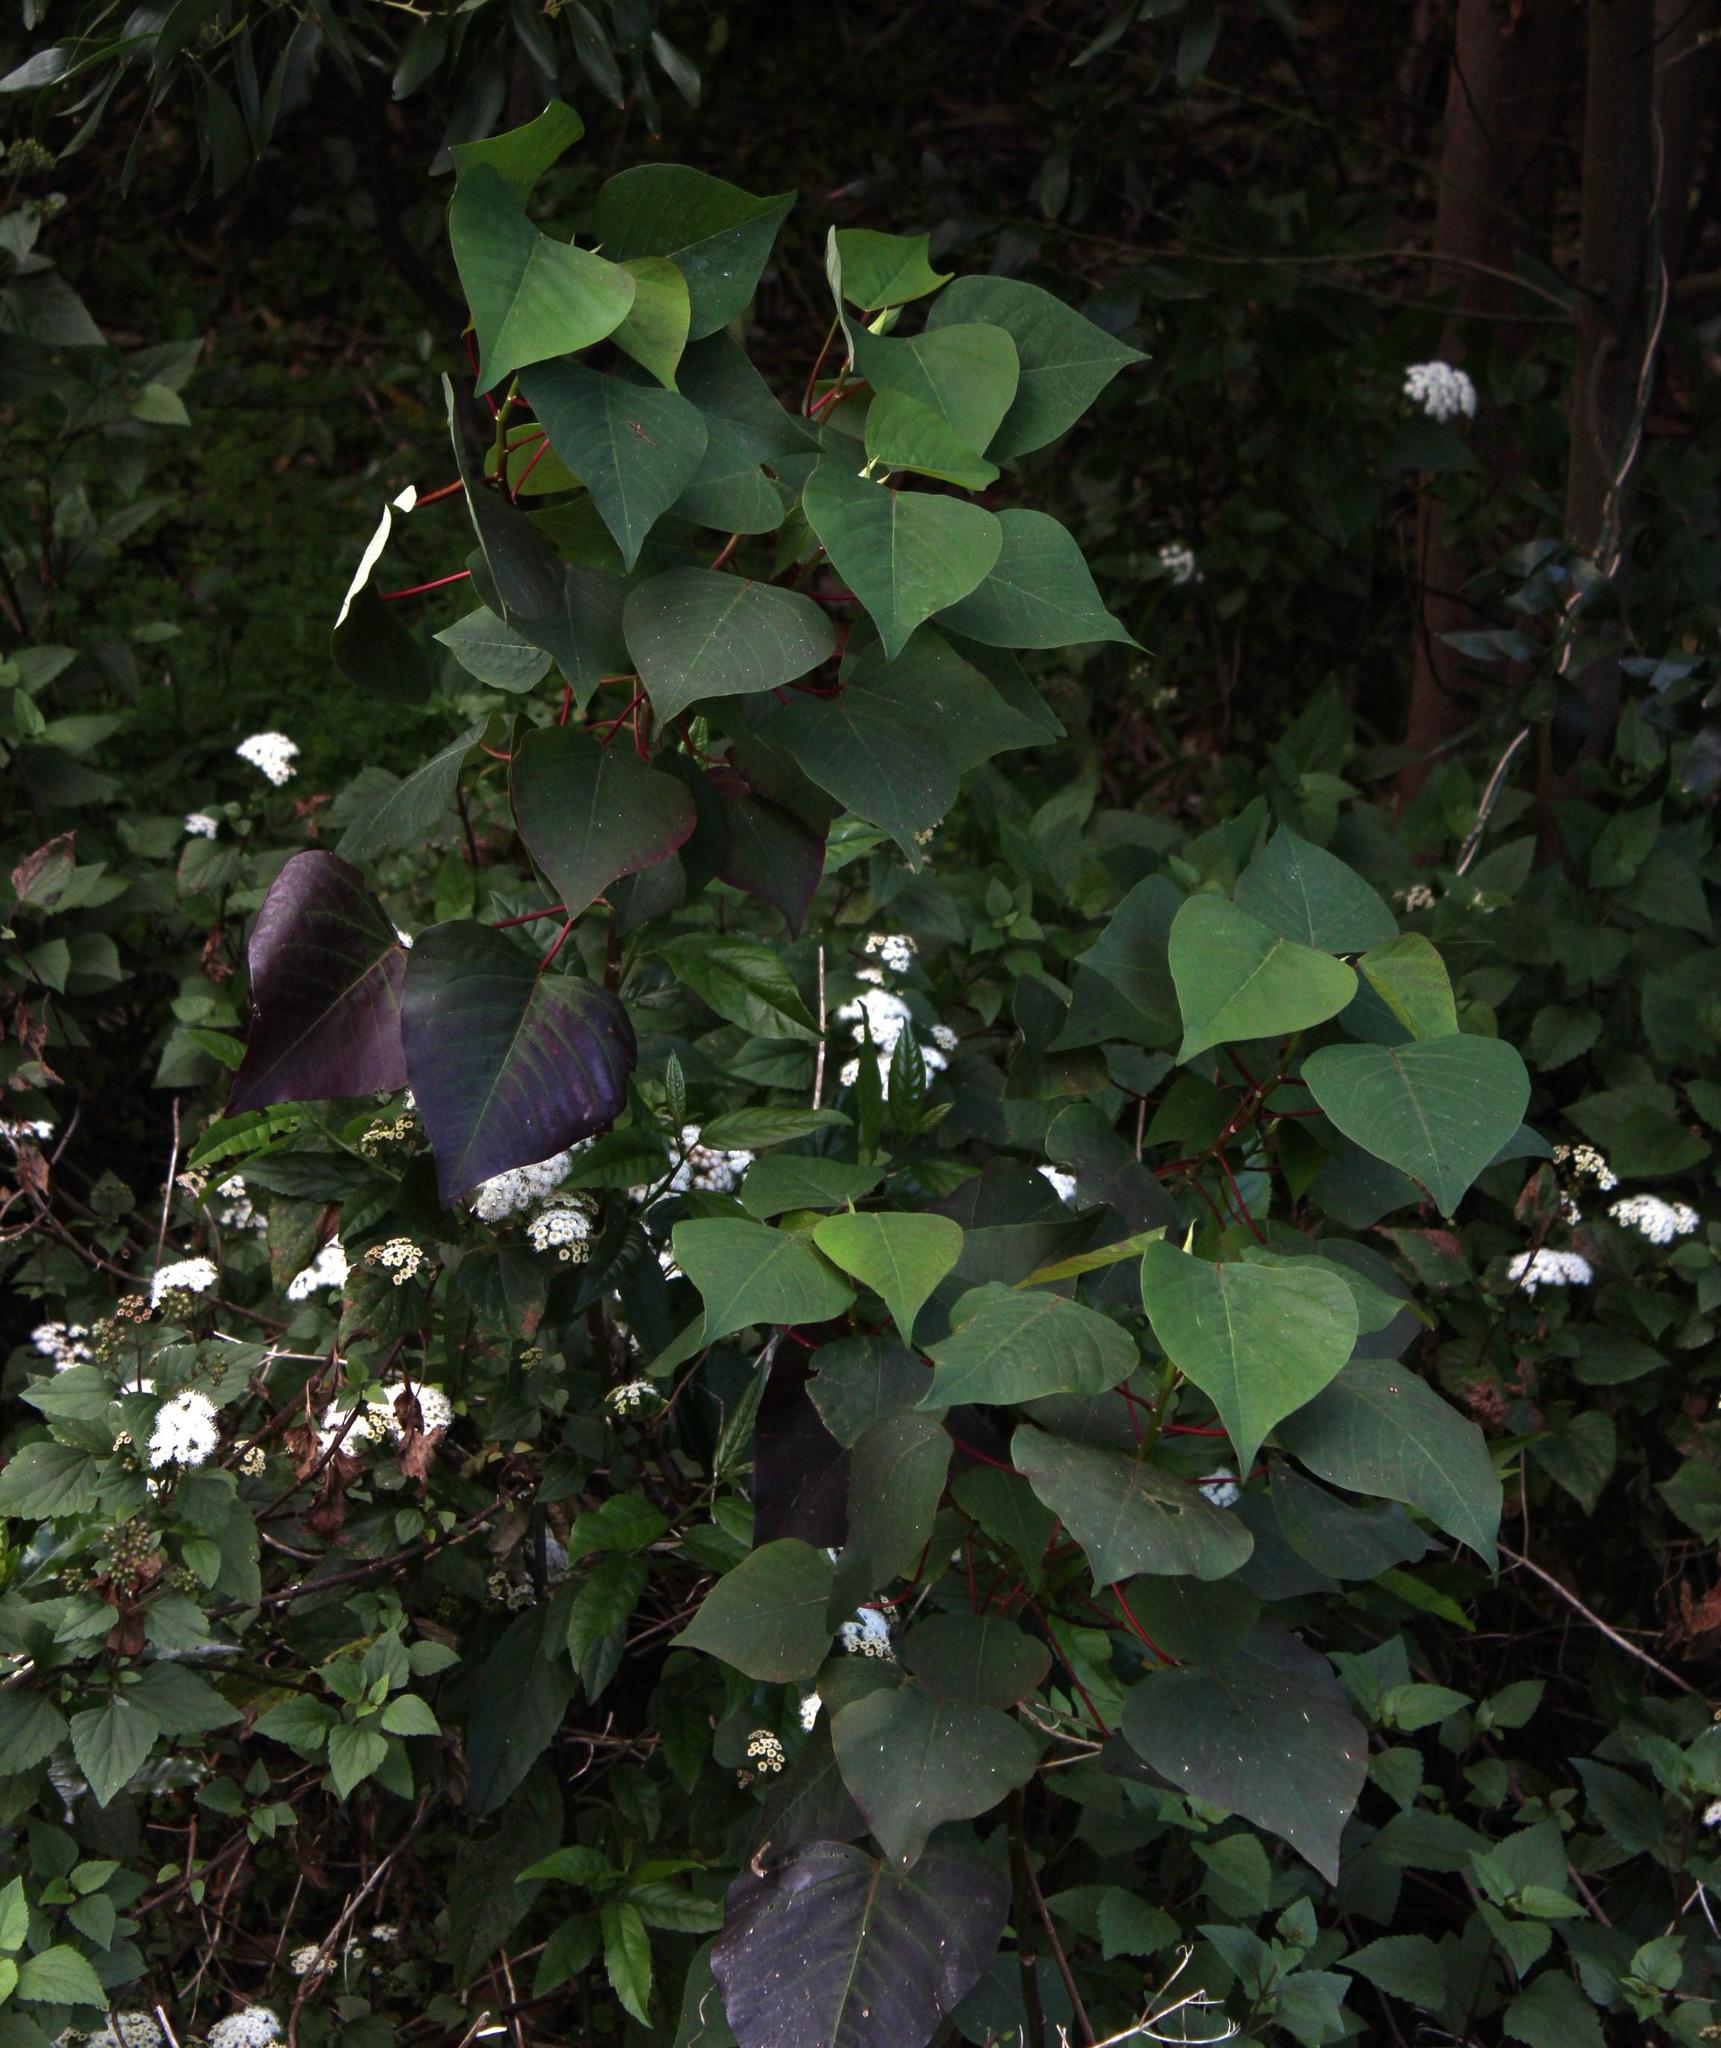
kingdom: Plantae
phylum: Tracheophyta
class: Magnoliopsida
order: Malpighiales
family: Euphorbiaceae
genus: Homalanthus
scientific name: Homalanthus populifolius
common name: Queensland poplar
